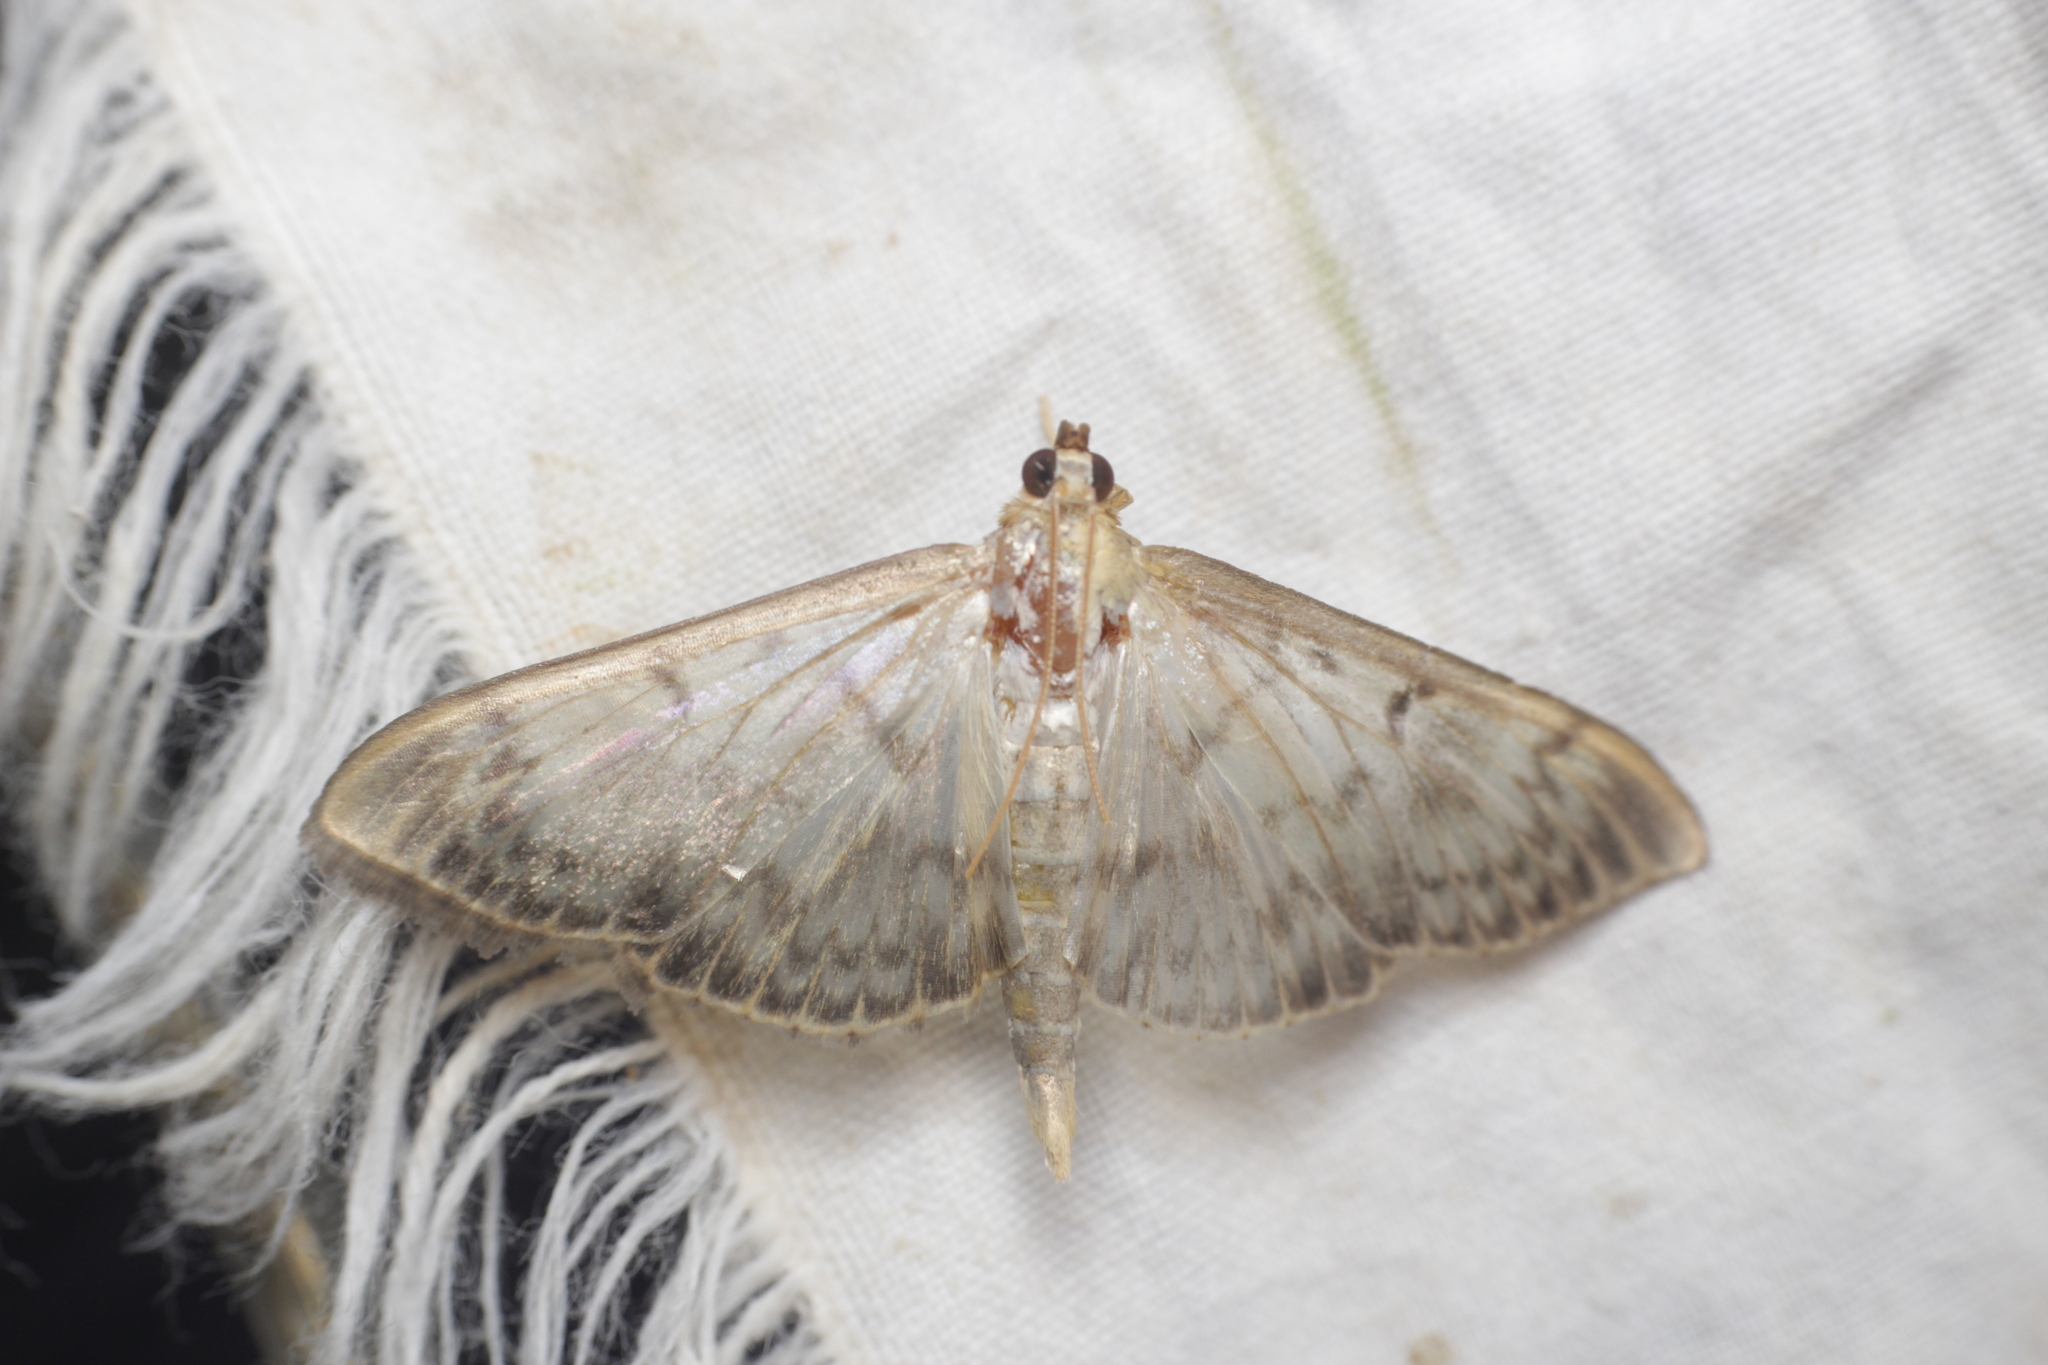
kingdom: Animalia
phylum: Arthropoda
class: Insecta
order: Lepidoptera
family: Crambidae
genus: Patania
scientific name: Patania ruralis
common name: Mother of pearl
